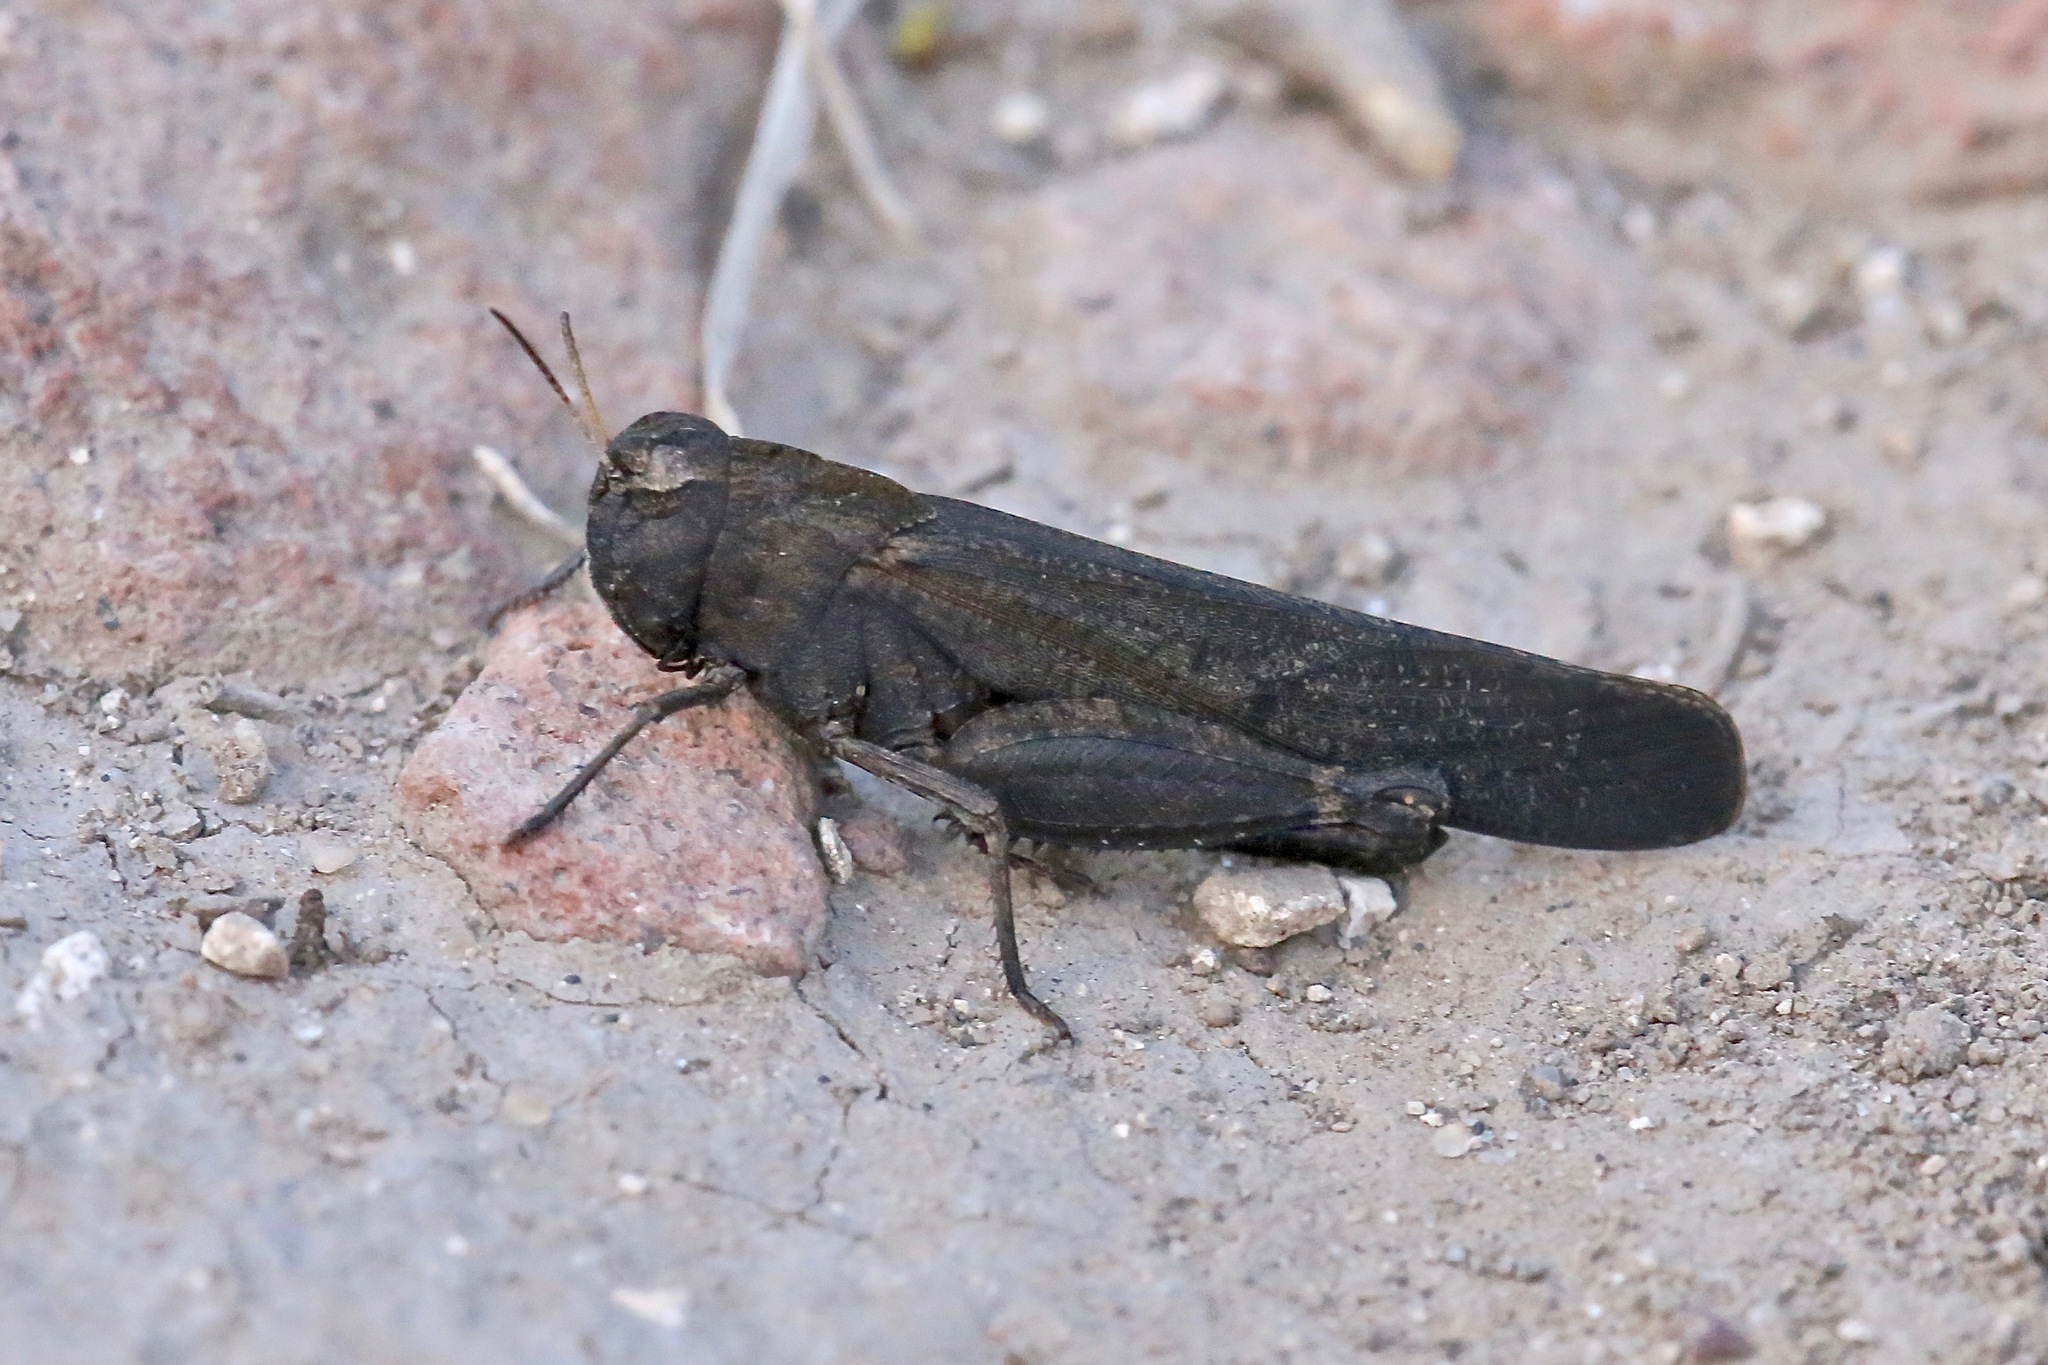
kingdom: Animalia
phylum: Arthropoda
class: Insecta
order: Orthoptera
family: Acrididae
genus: Arphia
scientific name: Arphia pseudo-nietana
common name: Red-winged grasshopper
